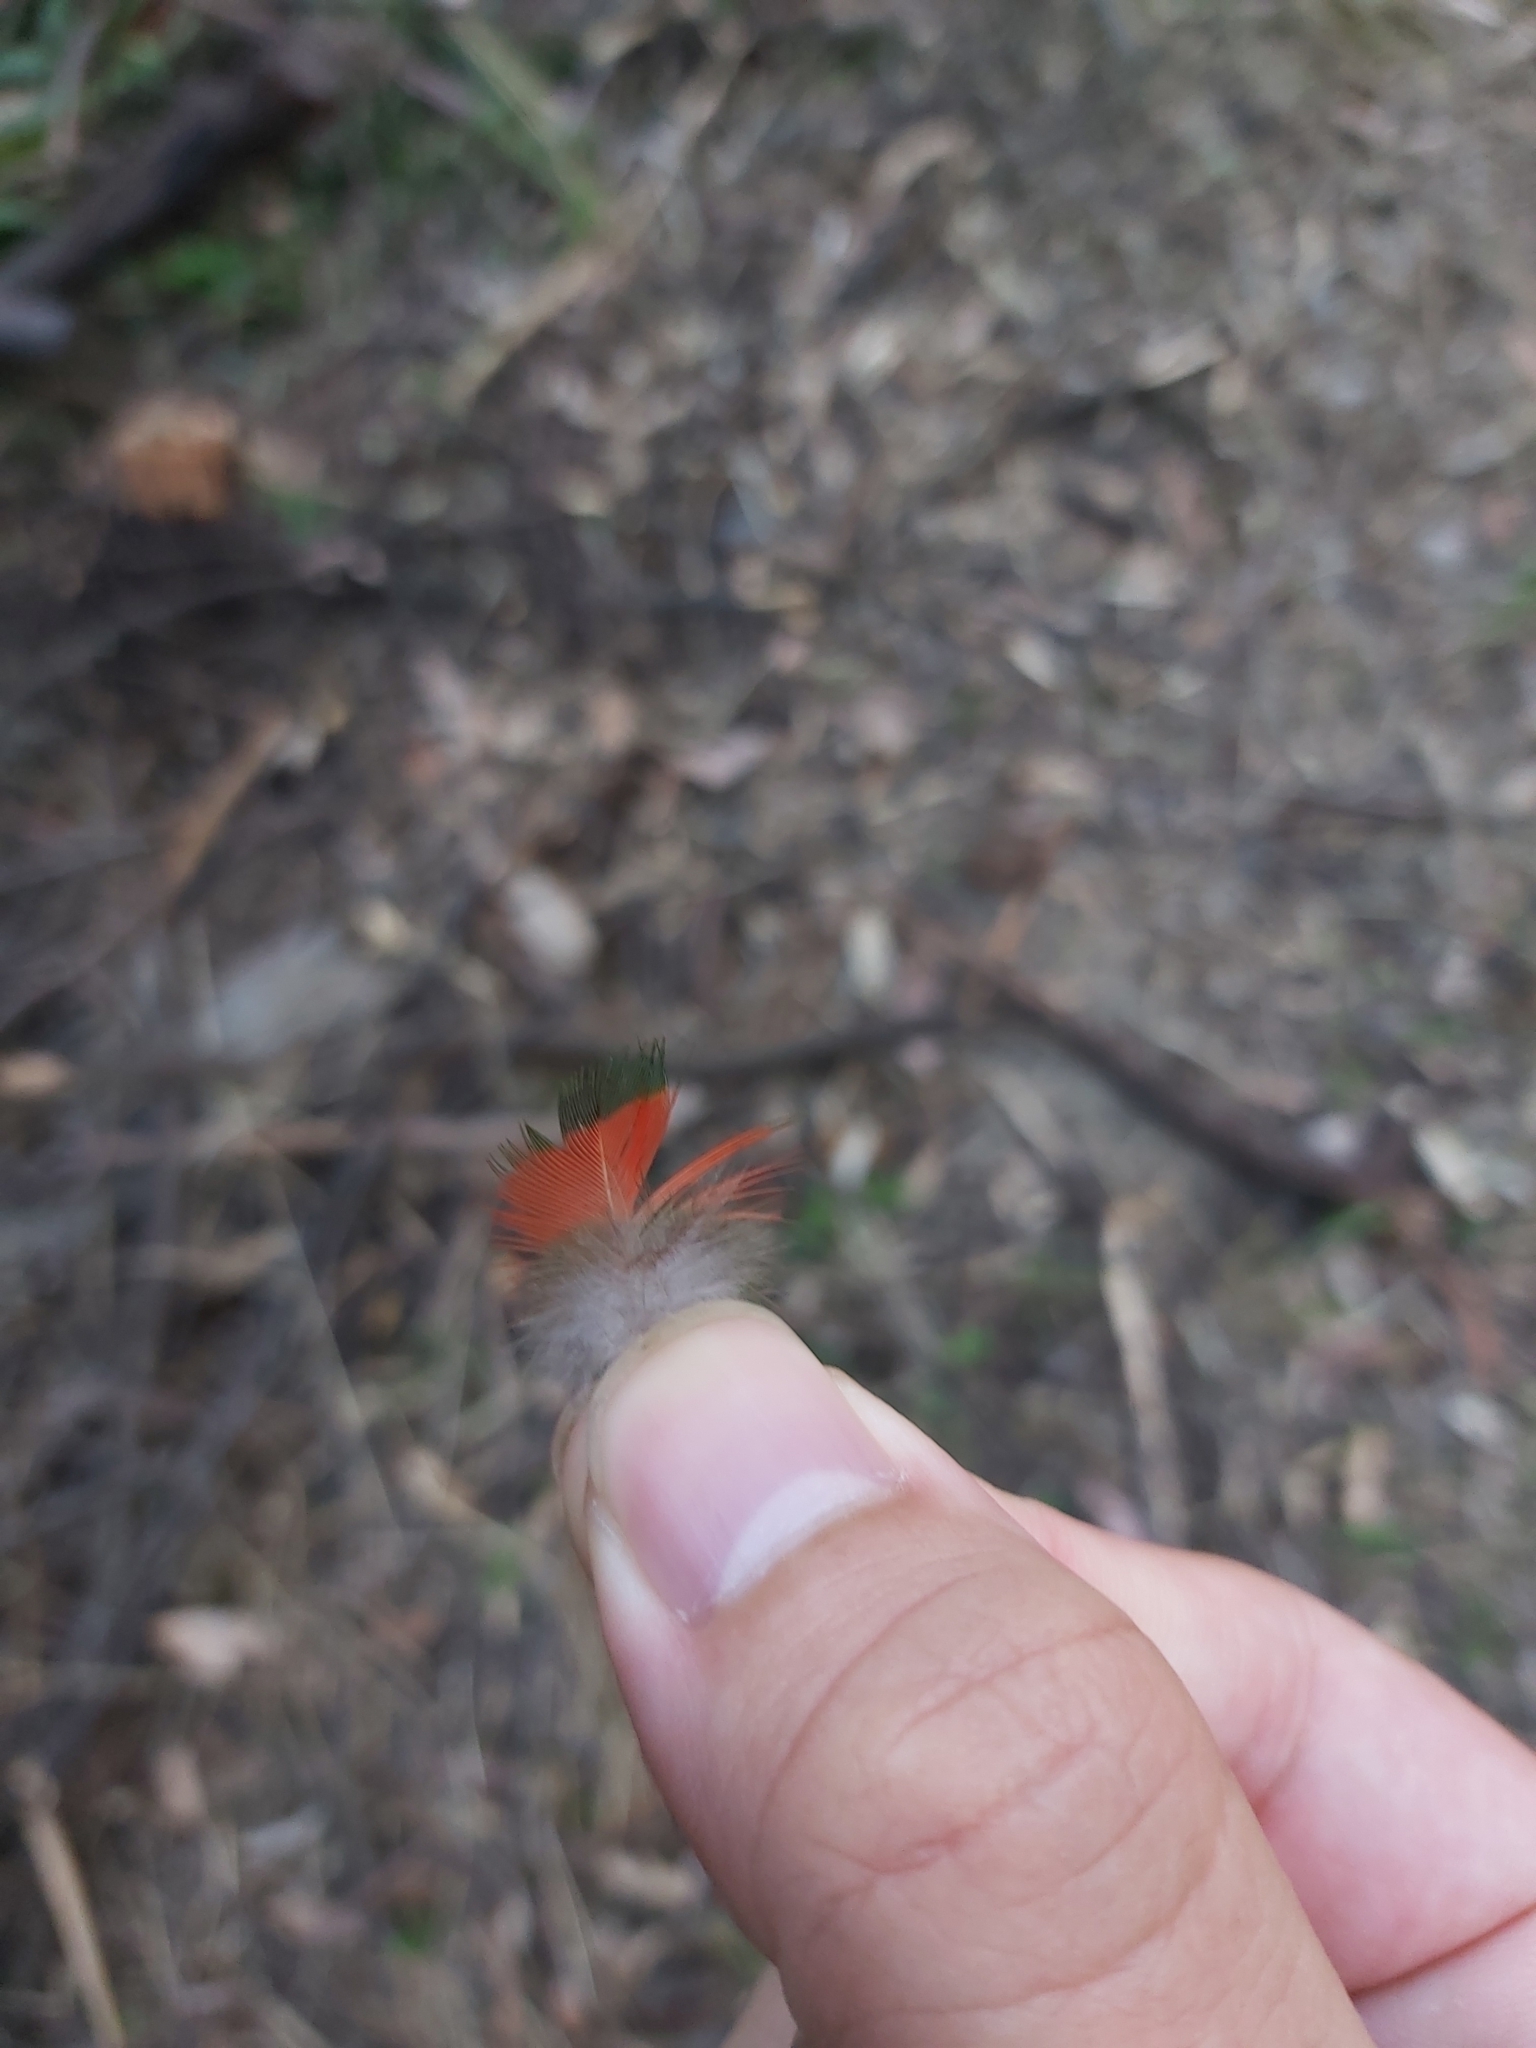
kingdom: Animalia
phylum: Chordata
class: Aves
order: Psittaciformes
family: Psittacidae
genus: Trichoglossus
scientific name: Trichoglossus haematodus
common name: Coconut lorikeet
